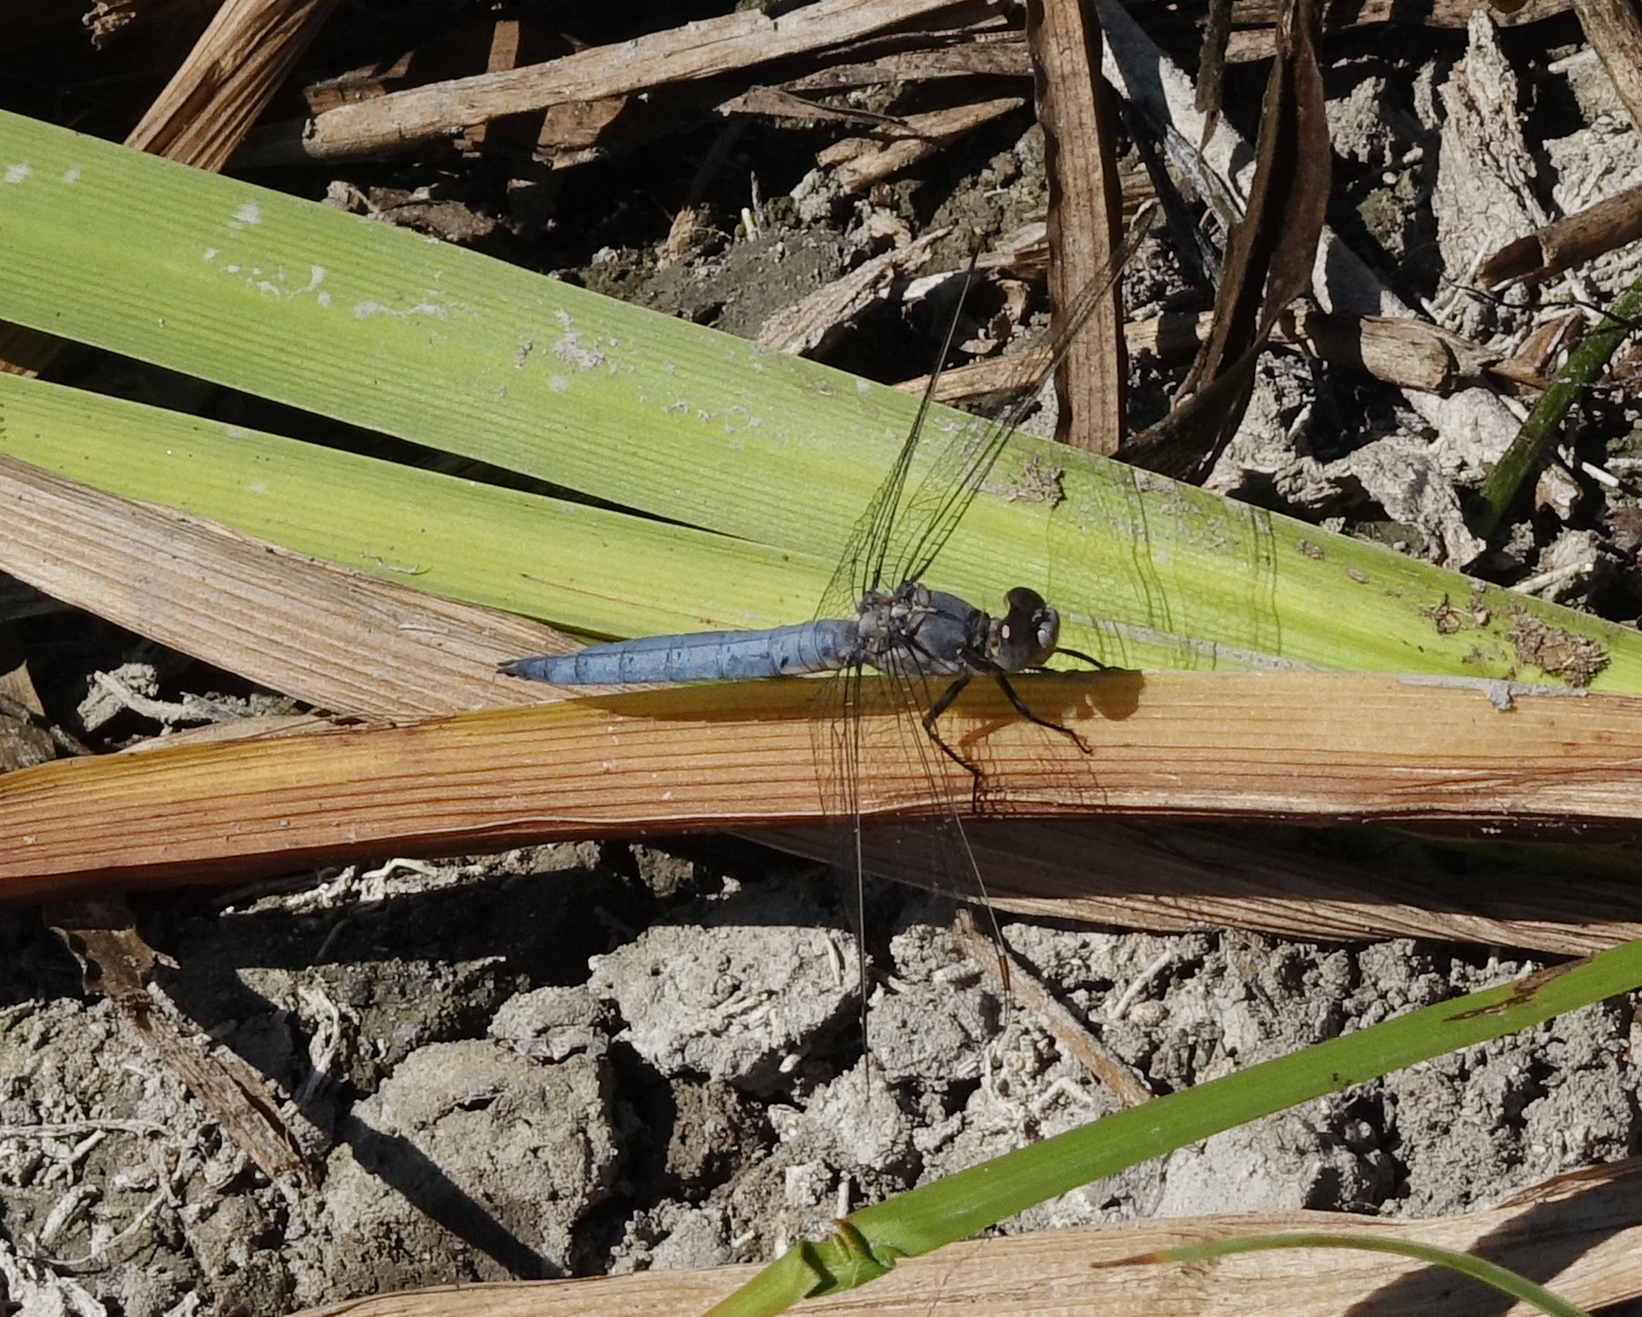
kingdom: Animalia
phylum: Arthropoda
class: Insecta
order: Odonata
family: Libellulidae
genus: Orthetrum
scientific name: Orthetrum brunneum
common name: Southern skimmer
